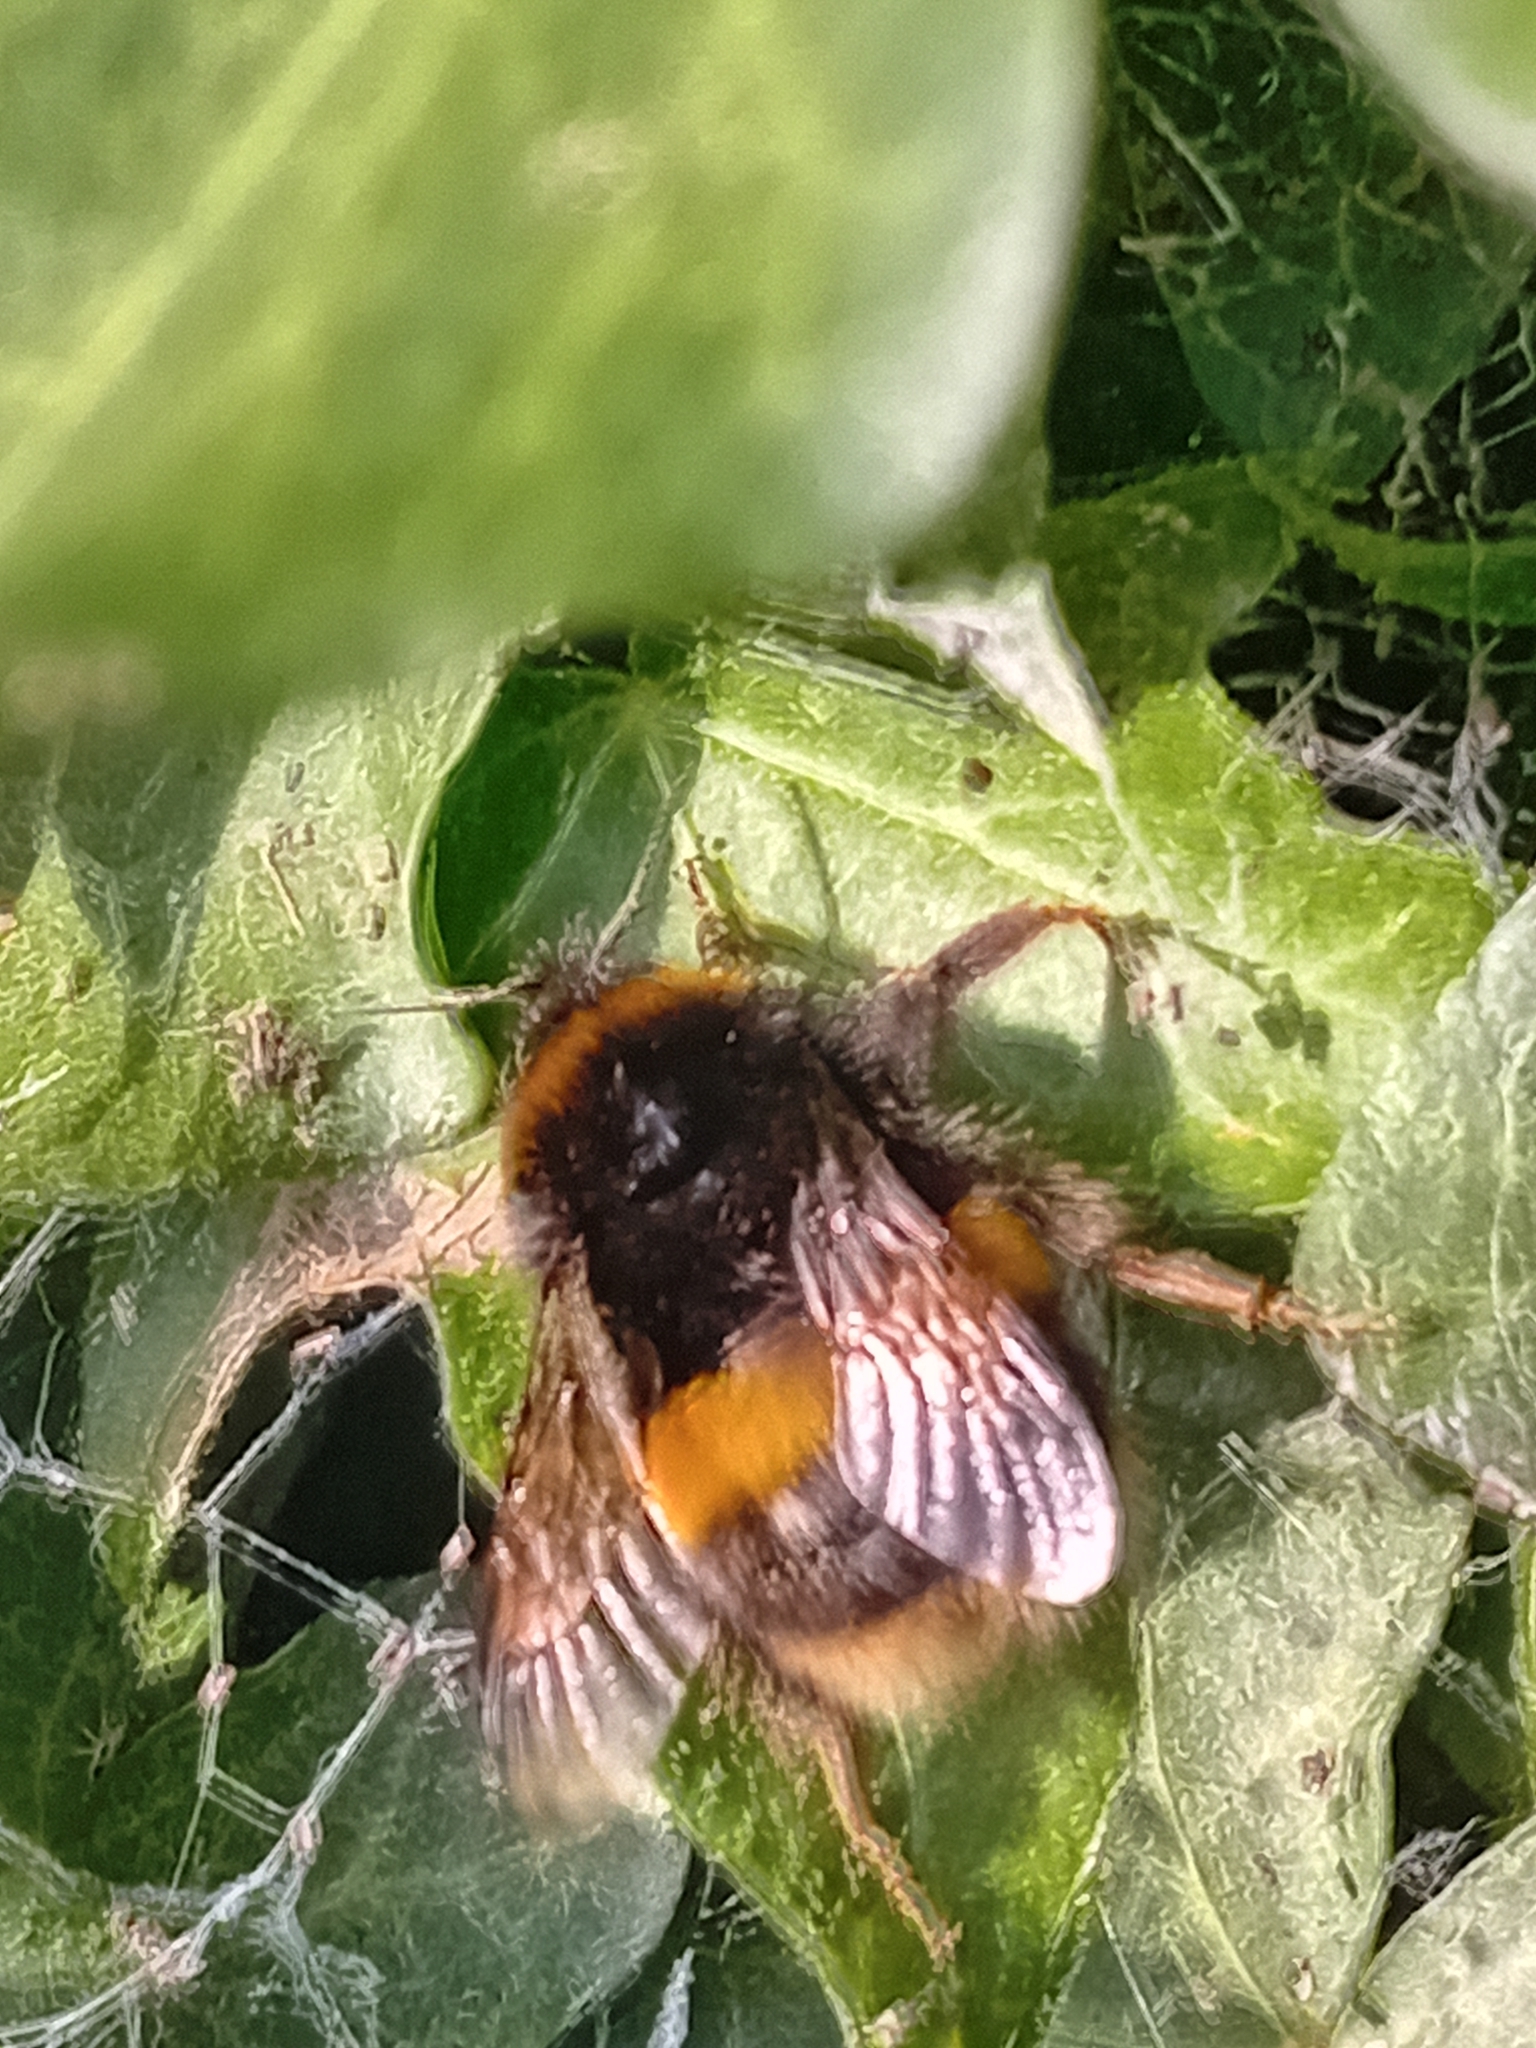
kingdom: Animalia
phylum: Arthropoda
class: Insecta
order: Hymenoptera
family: Apidae
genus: Bombus
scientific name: Bombus terrestris
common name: Buff-tailed bumblebee
